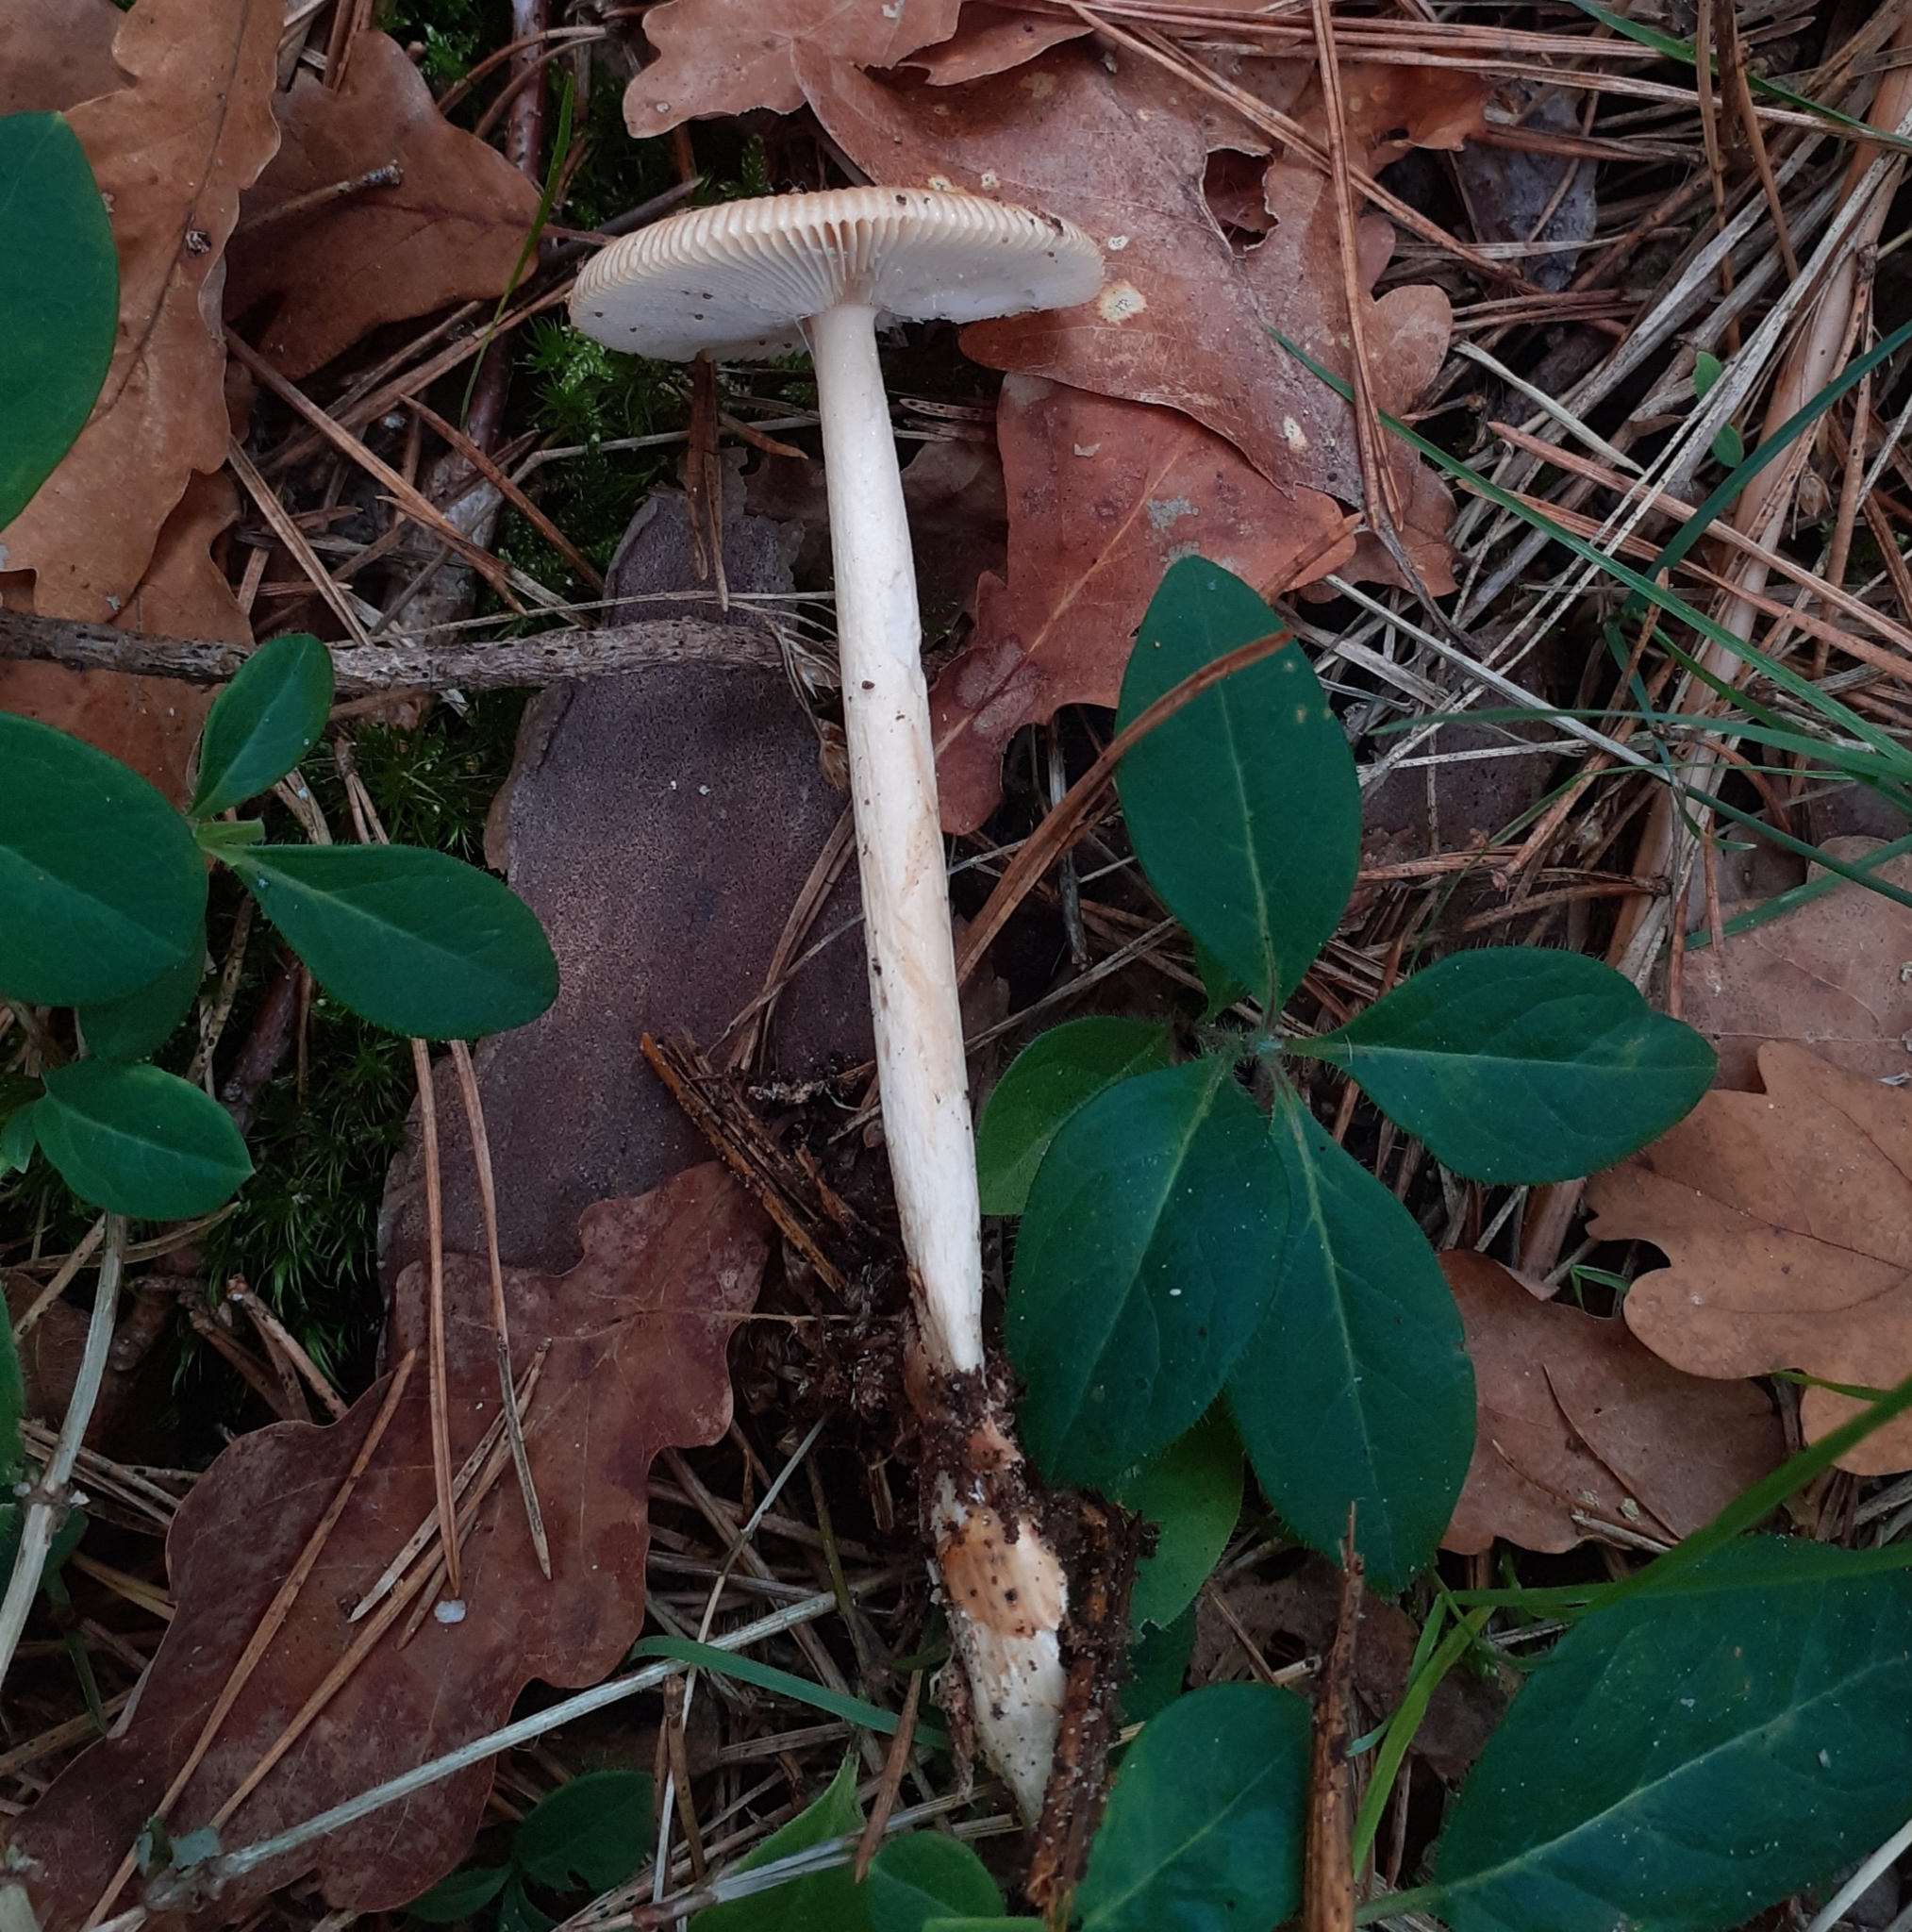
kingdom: Fungi
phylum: Basidiomycota
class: Agaricomycetes
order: Agaricales
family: Amanitaceae
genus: Amanita
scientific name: Amanita fulva
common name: Tawny grisette
